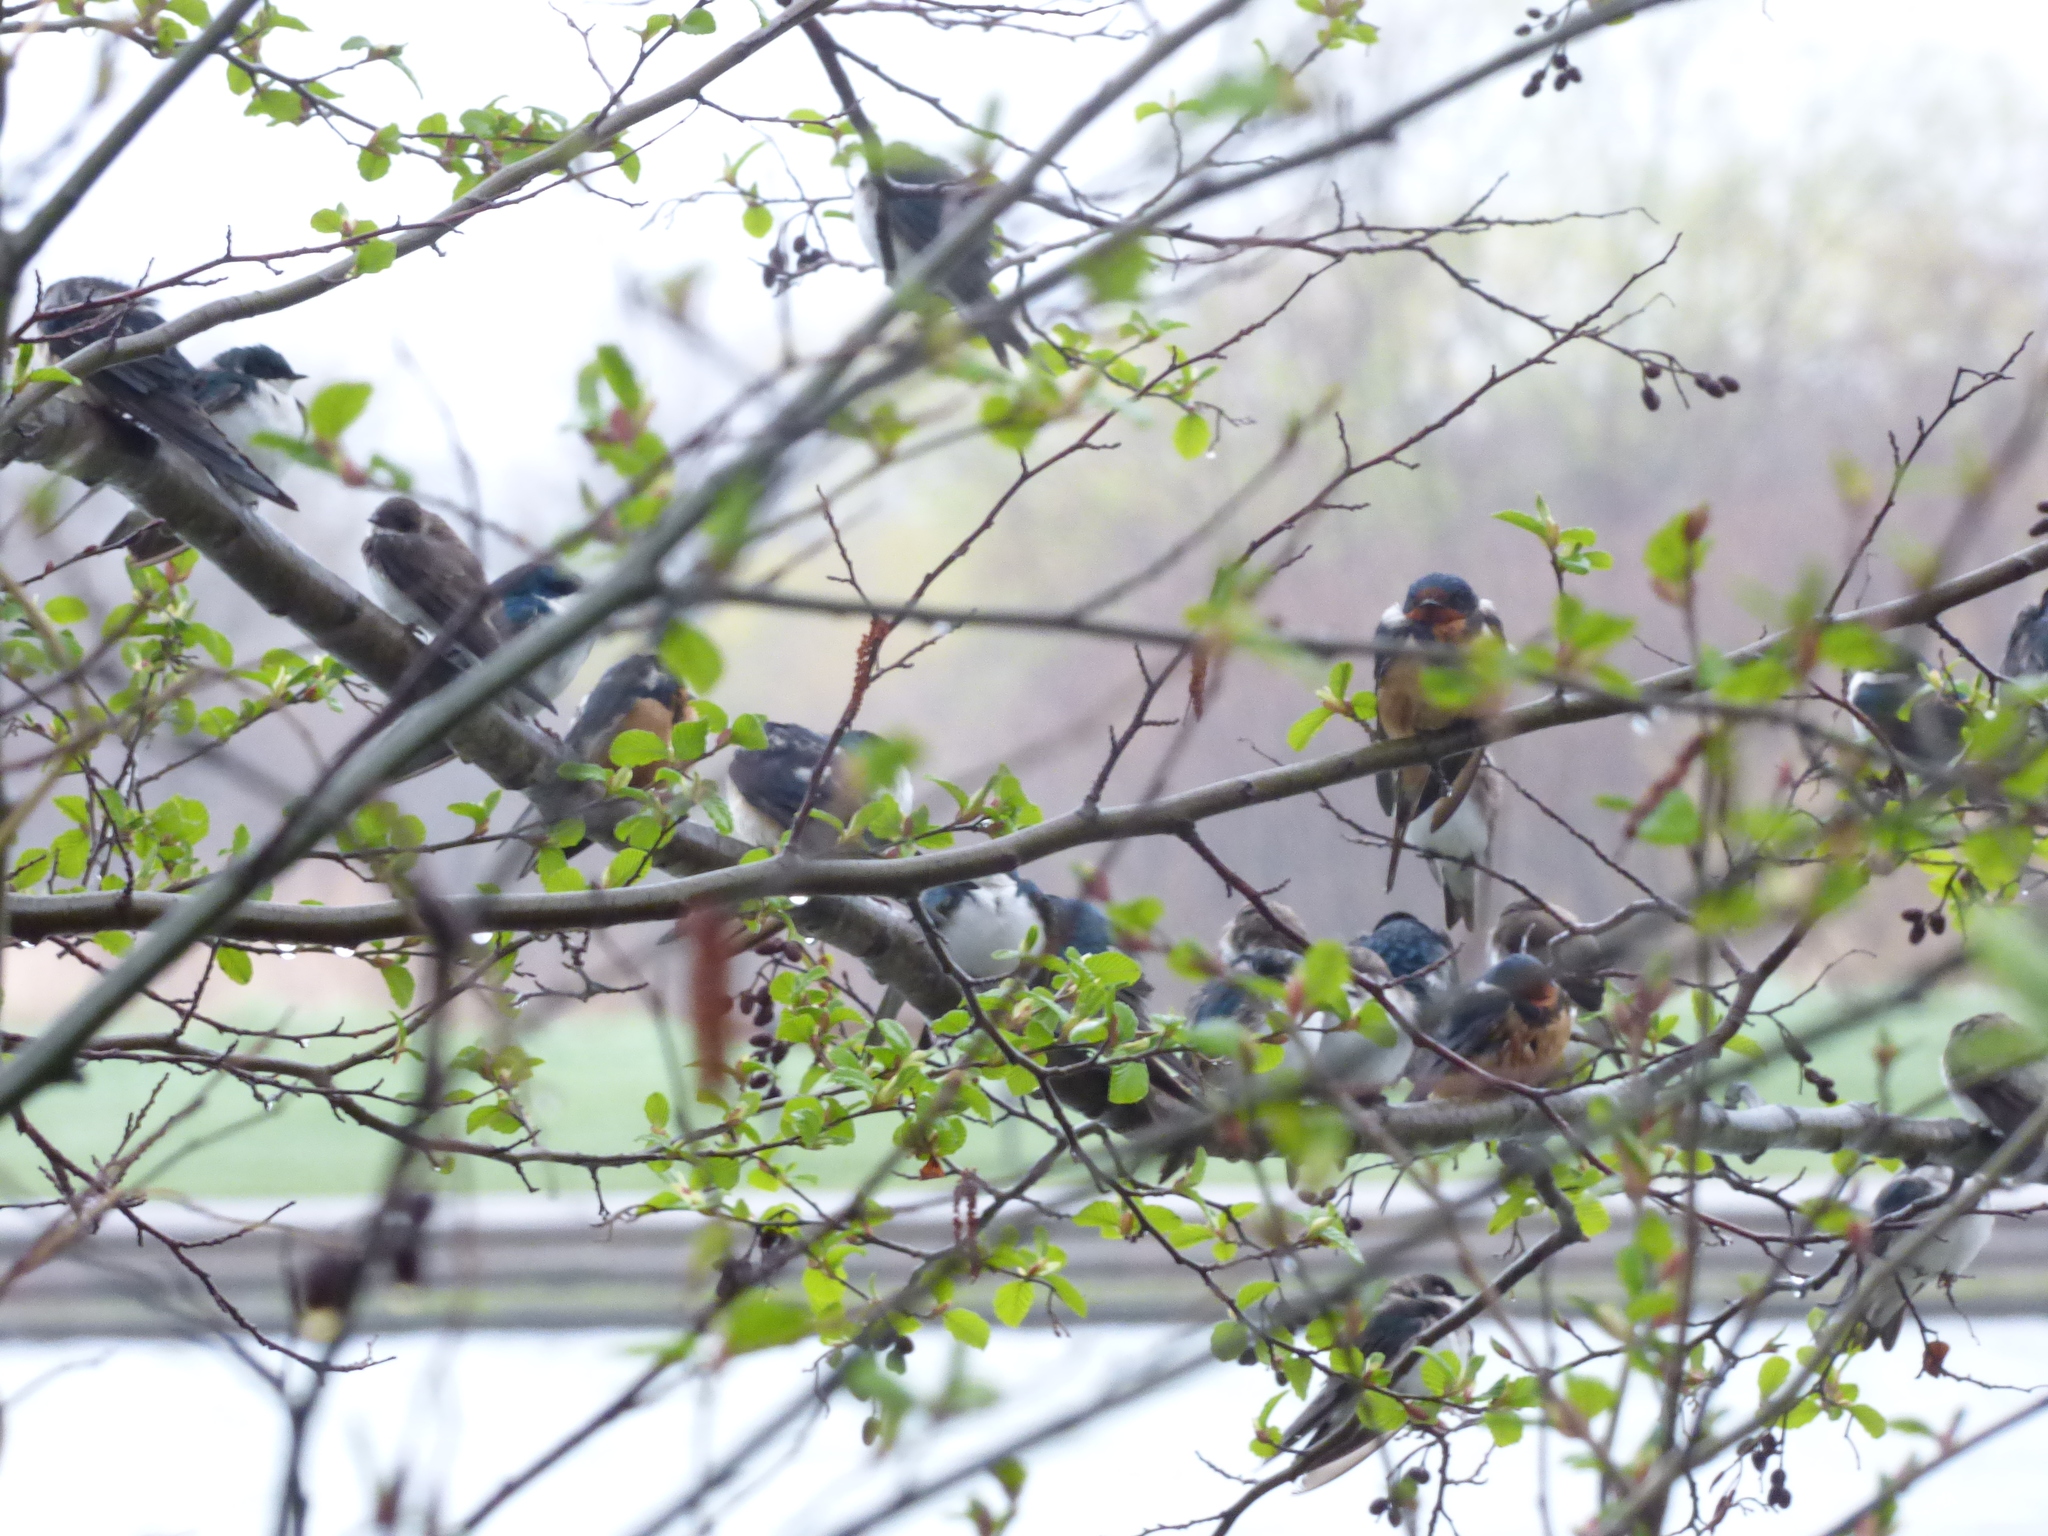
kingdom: Animalia
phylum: Chordata
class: Aves
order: Passeriformes
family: Hirundinidae
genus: Hirundo
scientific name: Hirundo rustica
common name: Barn swallow
